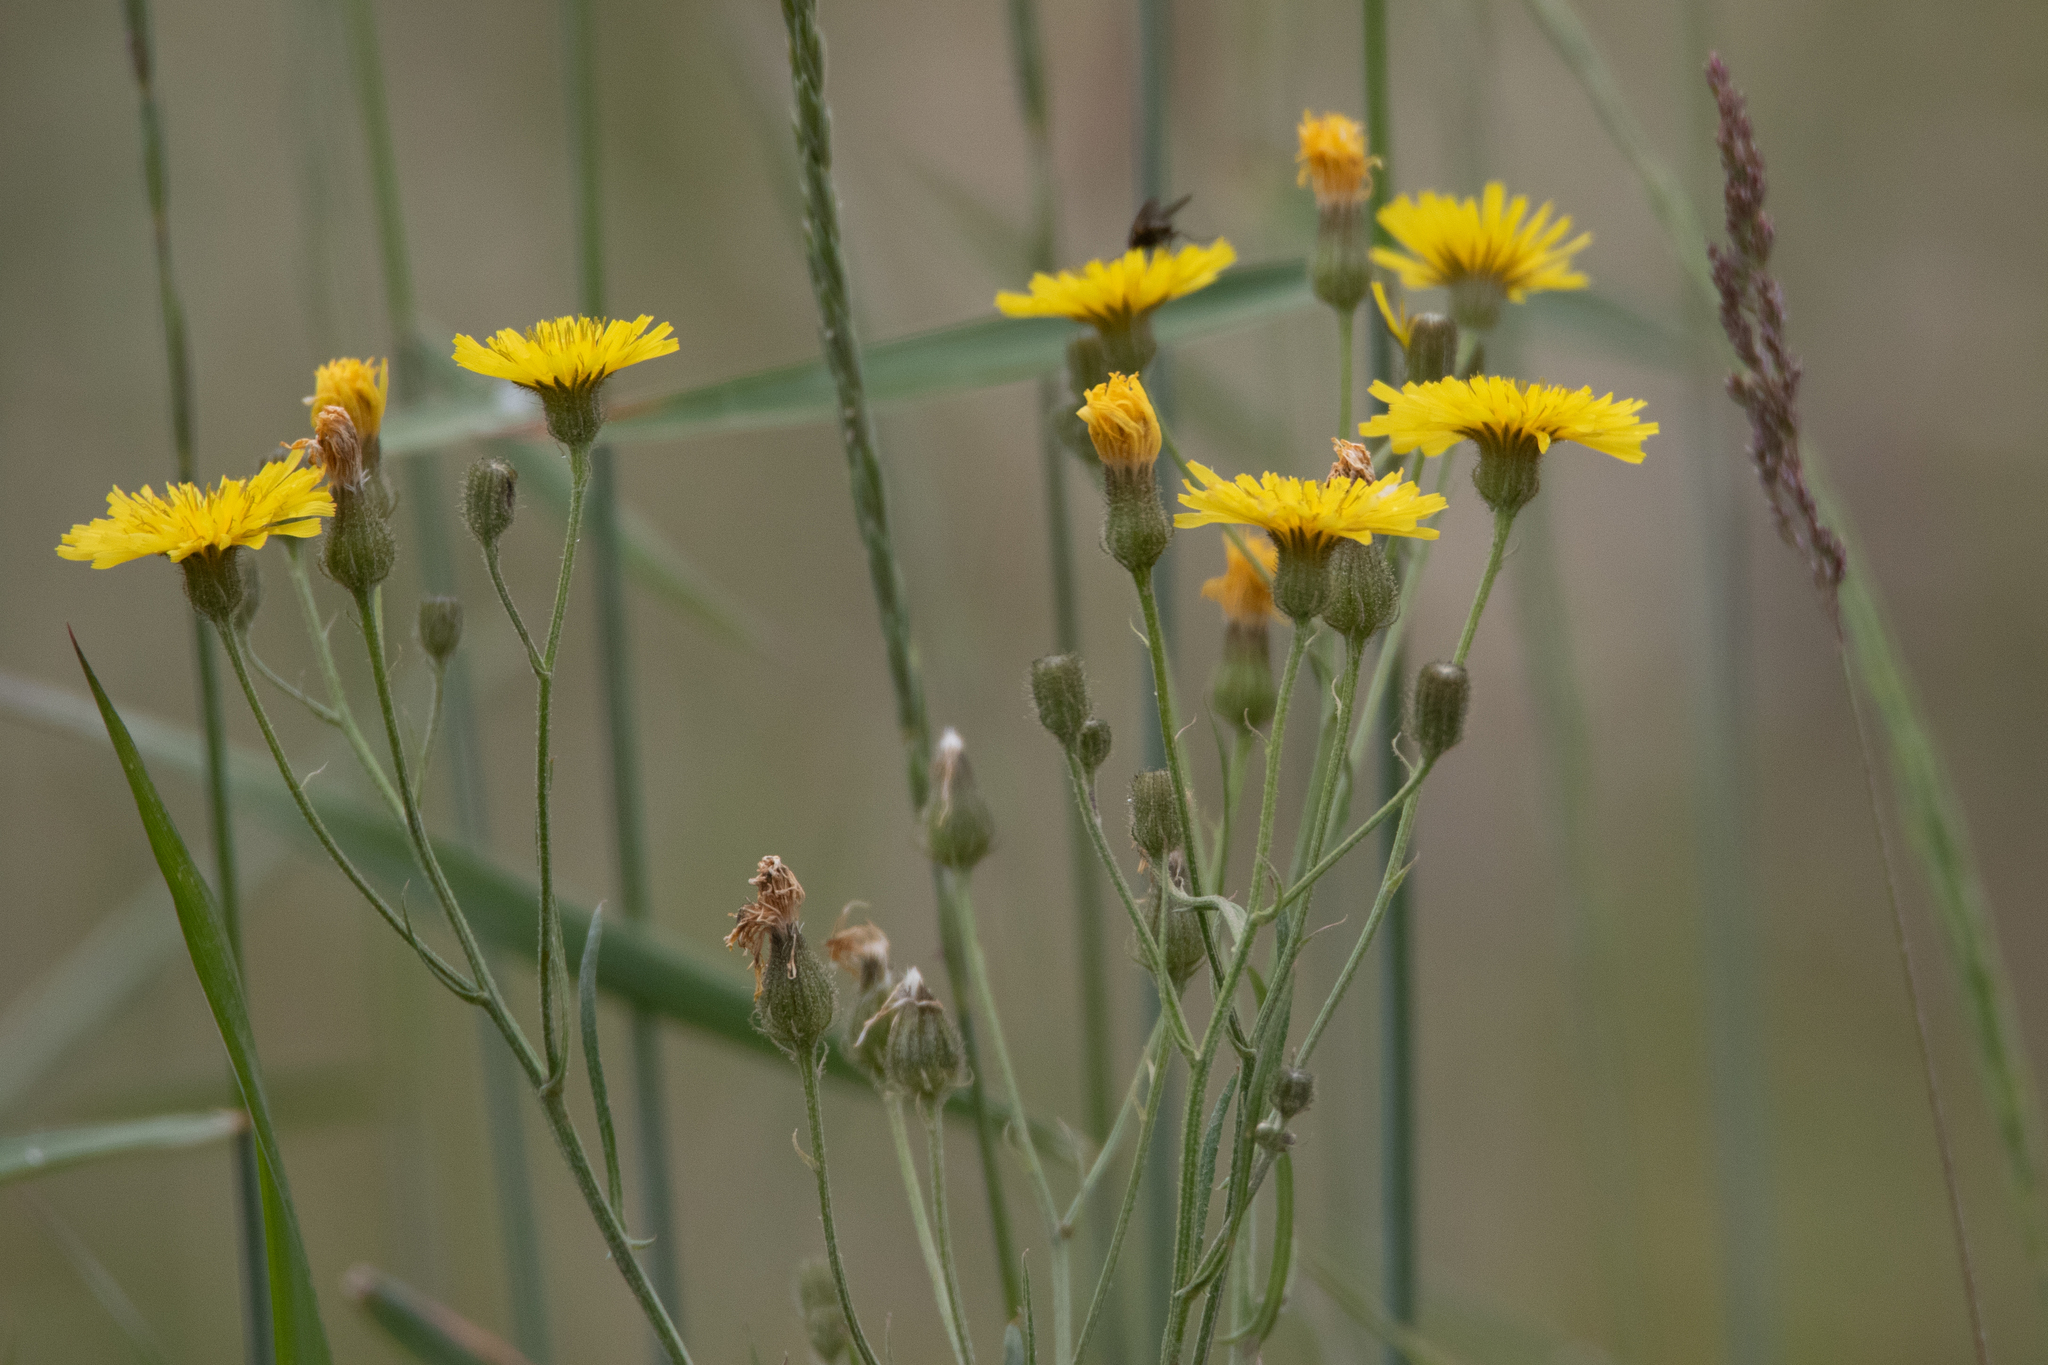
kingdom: Plantae
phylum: Tracheophyta
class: Magnoliopsida
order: Asterales
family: Asteraceae
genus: Crepis
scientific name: Crepis tectorum
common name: Narrow-leaved hawk's-beard
